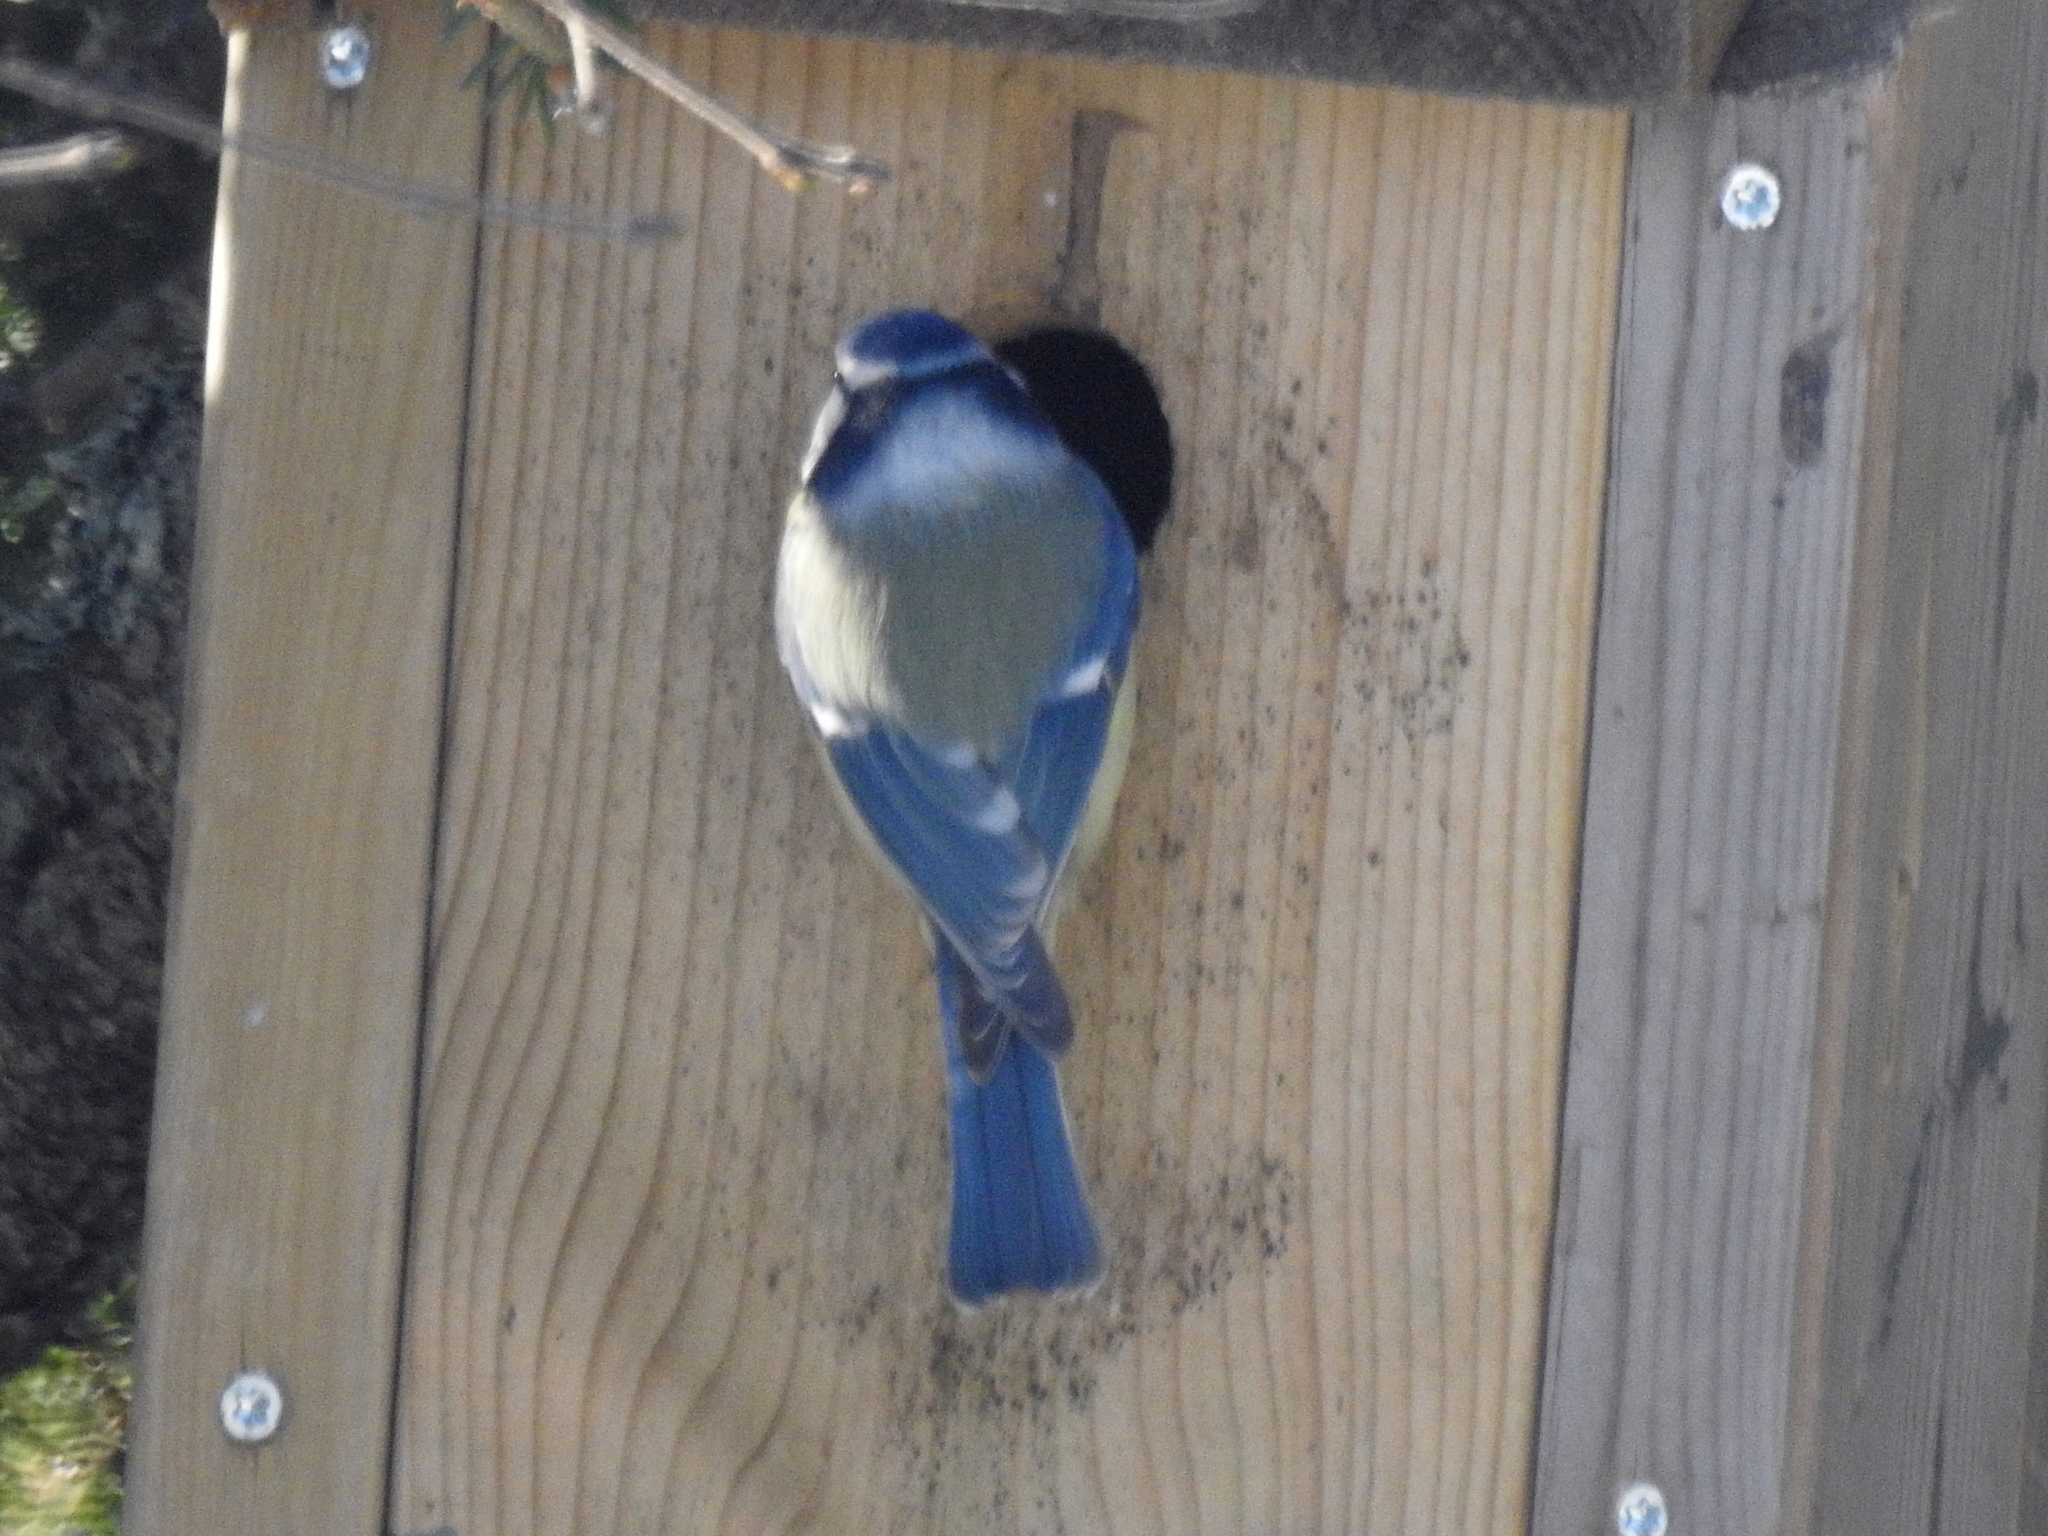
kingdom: Animalia
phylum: Chordata
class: Aves
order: Passeriformes
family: Paridae
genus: Cyanistes
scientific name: Cyanistes caeruleus
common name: Eurasian blue tit
